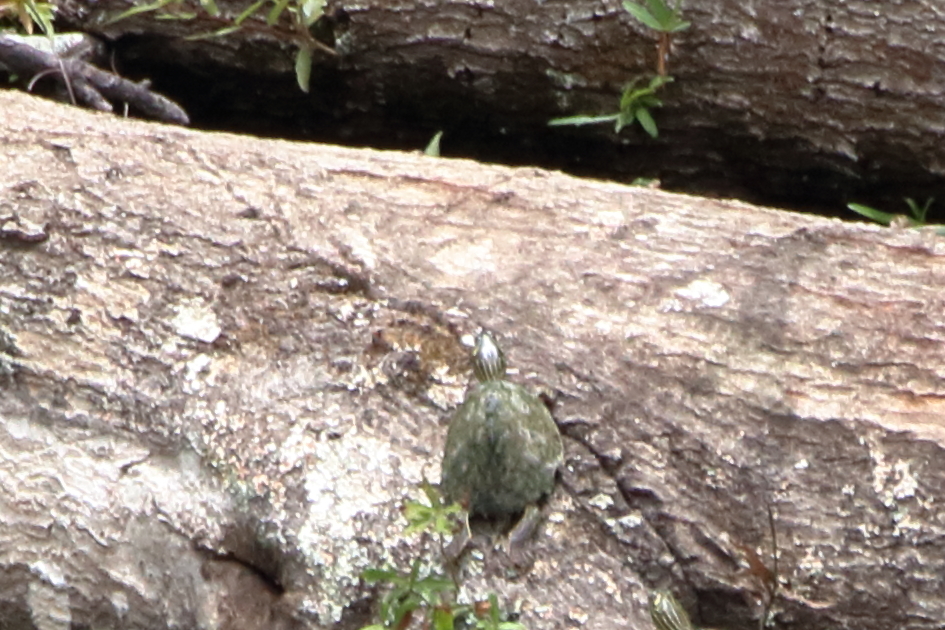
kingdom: Animalia
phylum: Chordata
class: Testudines
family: Emydidae
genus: Graptemys
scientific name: Graptemys pearlensis
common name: Pearl river map turtle
